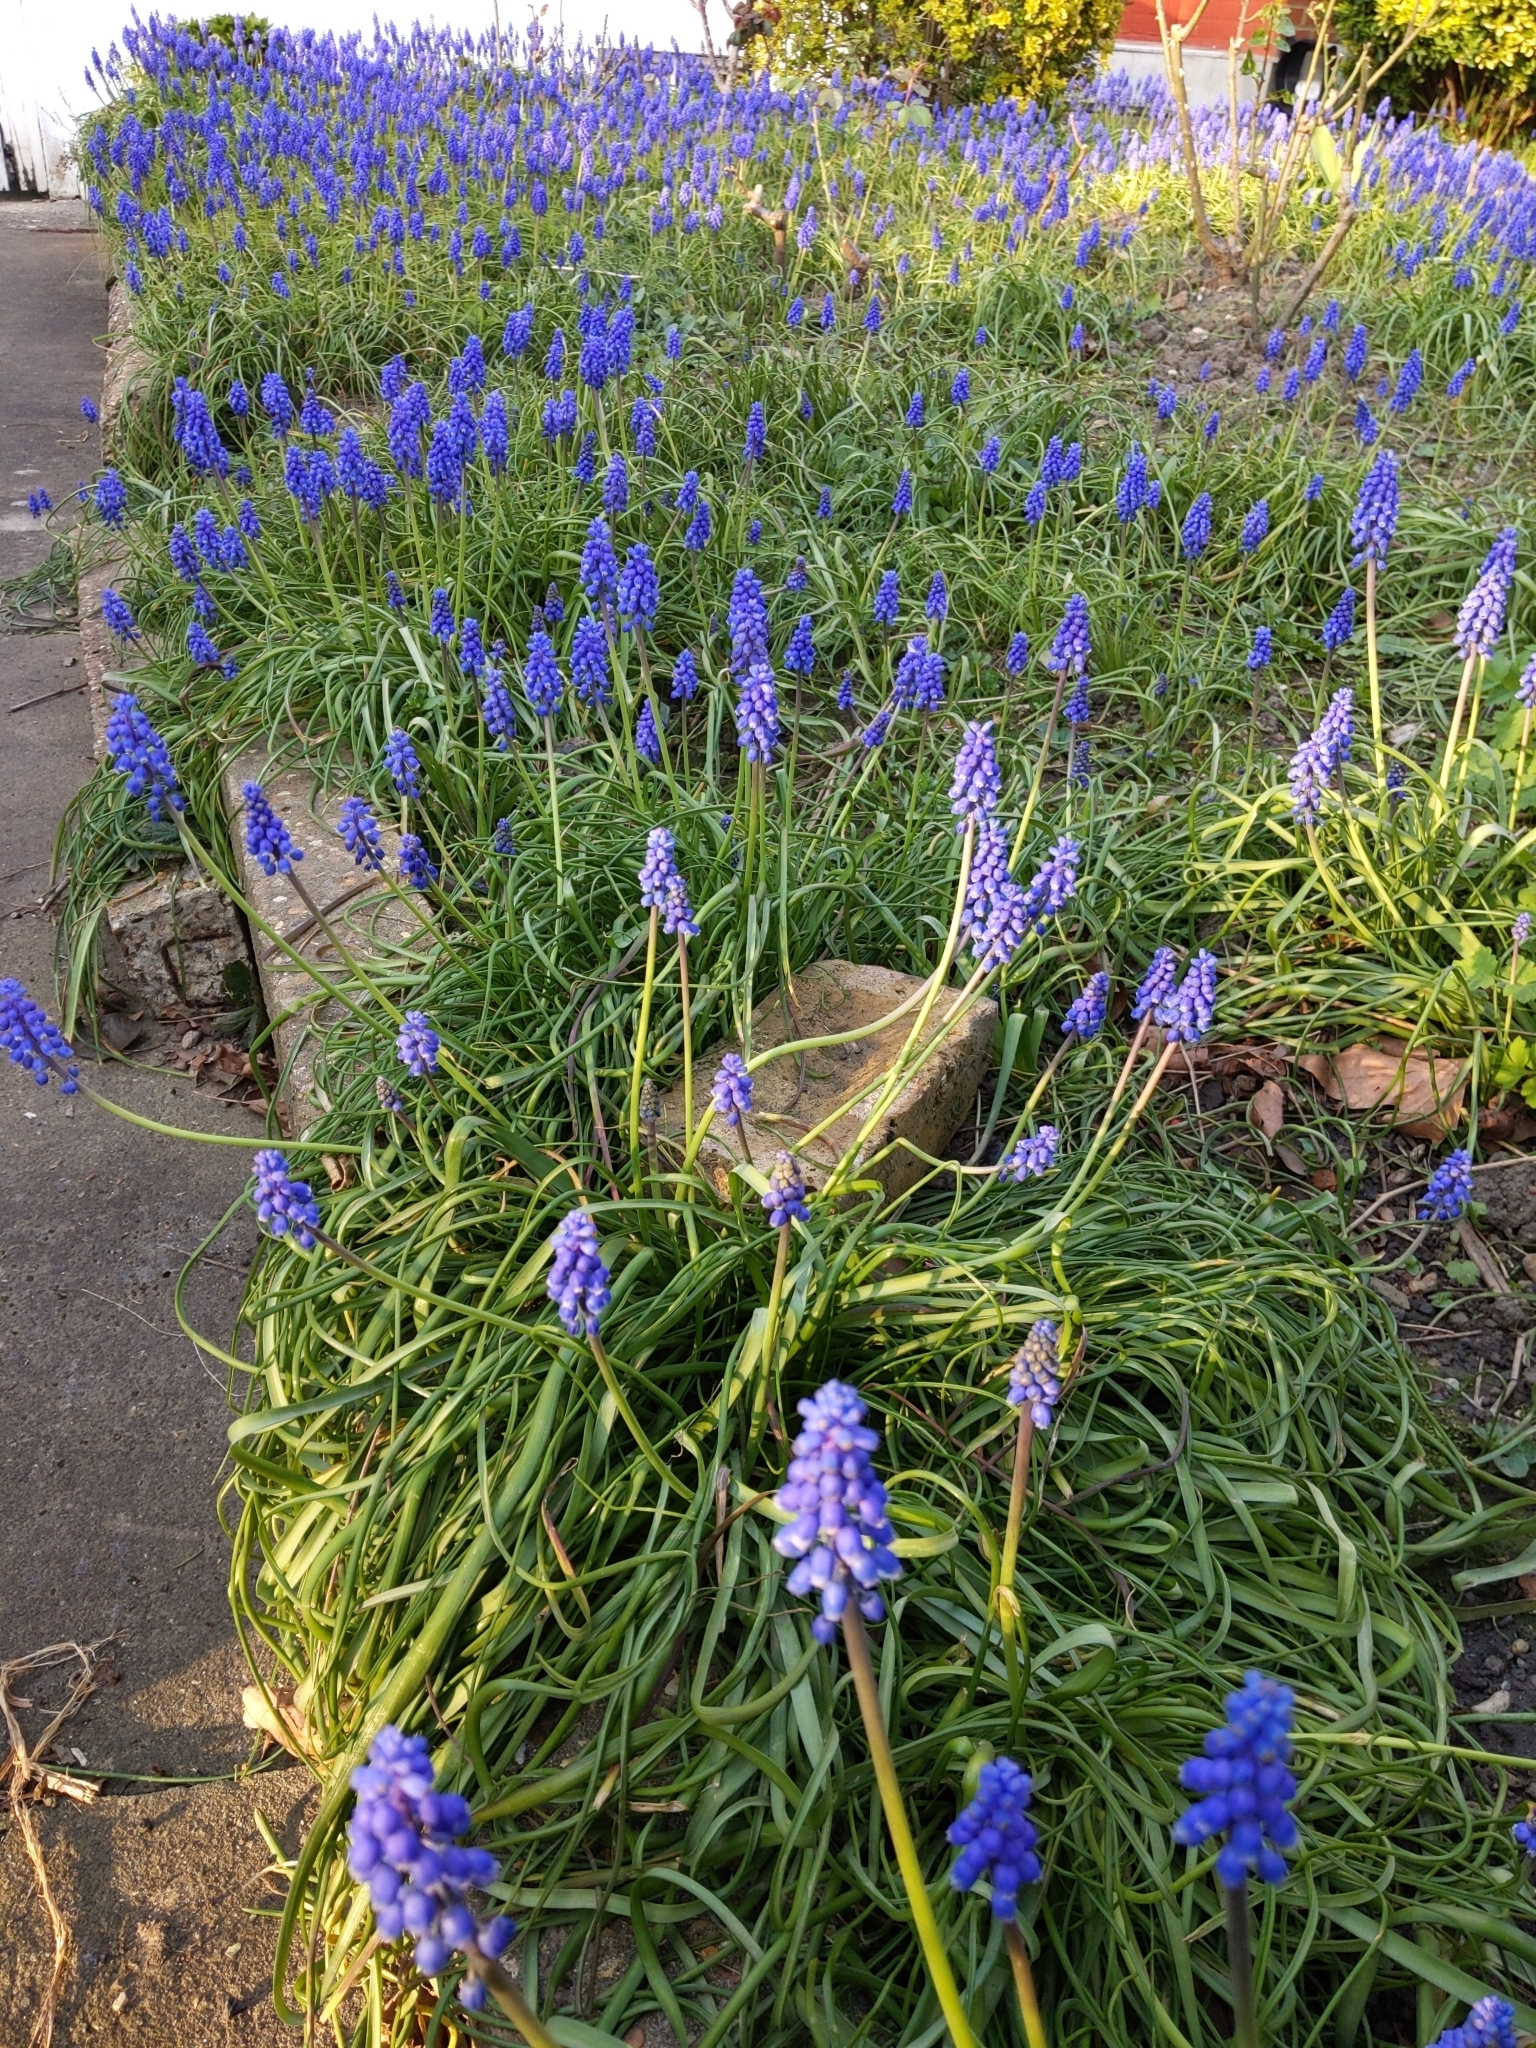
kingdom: Plantae
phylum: Tracheophyta
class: Liliopsida
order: Asparagales
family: Asparagaceae
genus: Muscari
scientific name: Muscari armeniacum
